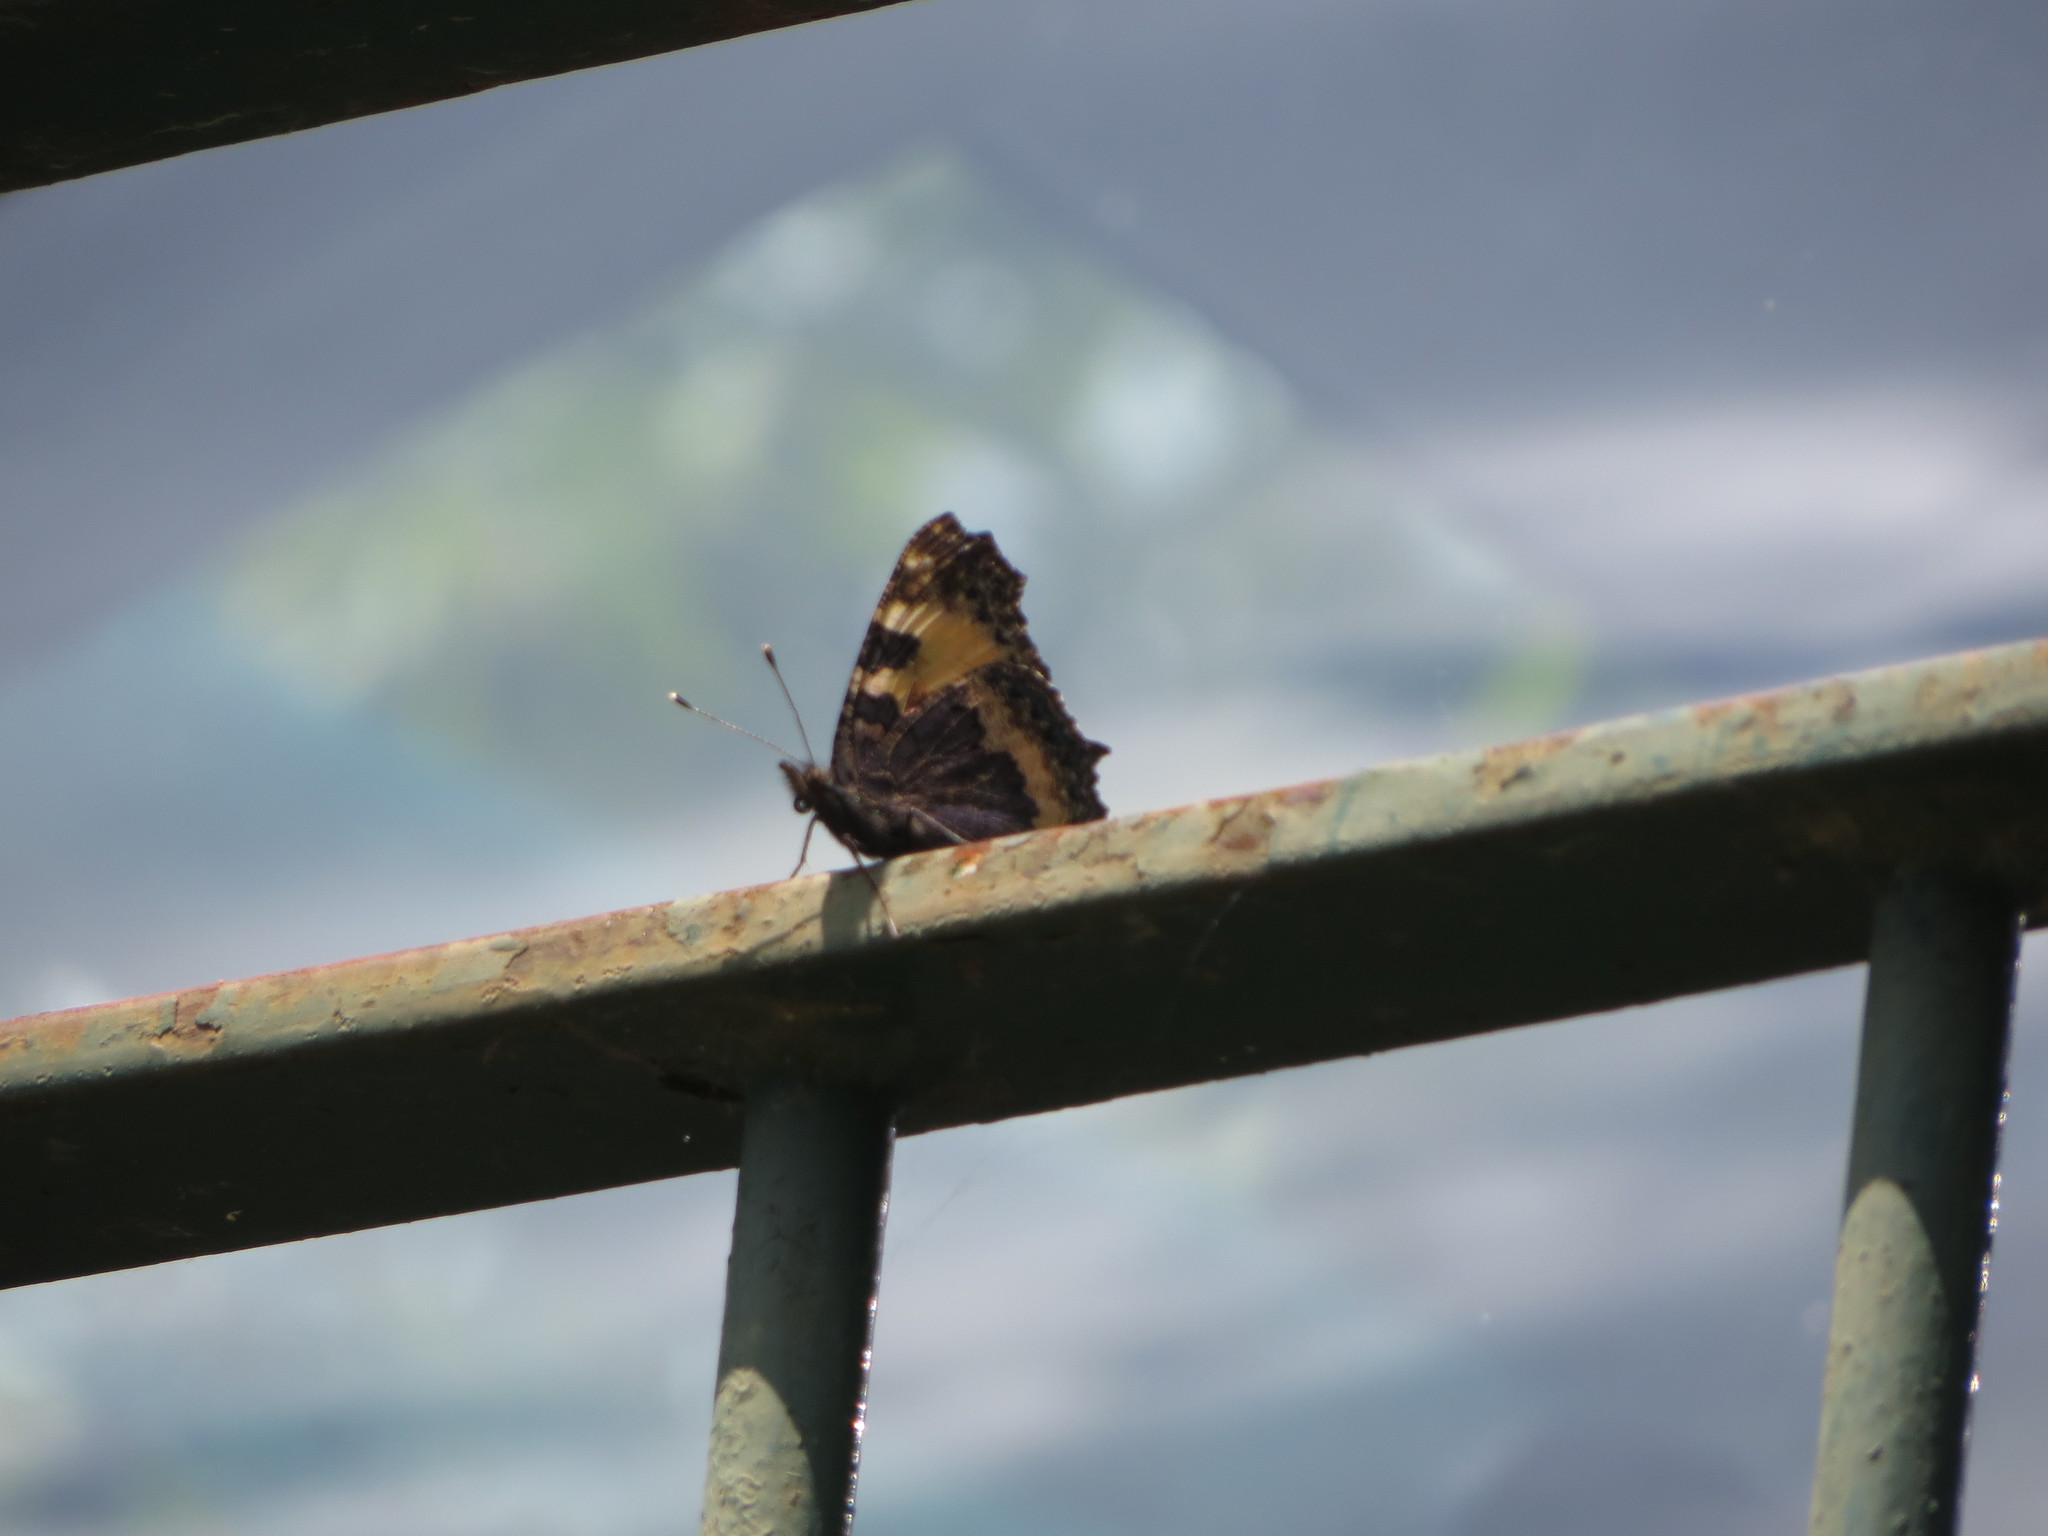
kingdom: Animalia
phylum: Arthropoda
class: Insecta
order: Lepidoptera
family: Nymphalidae
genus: Aglais
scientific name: Aglais urticae
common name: Small tortoiseshell
